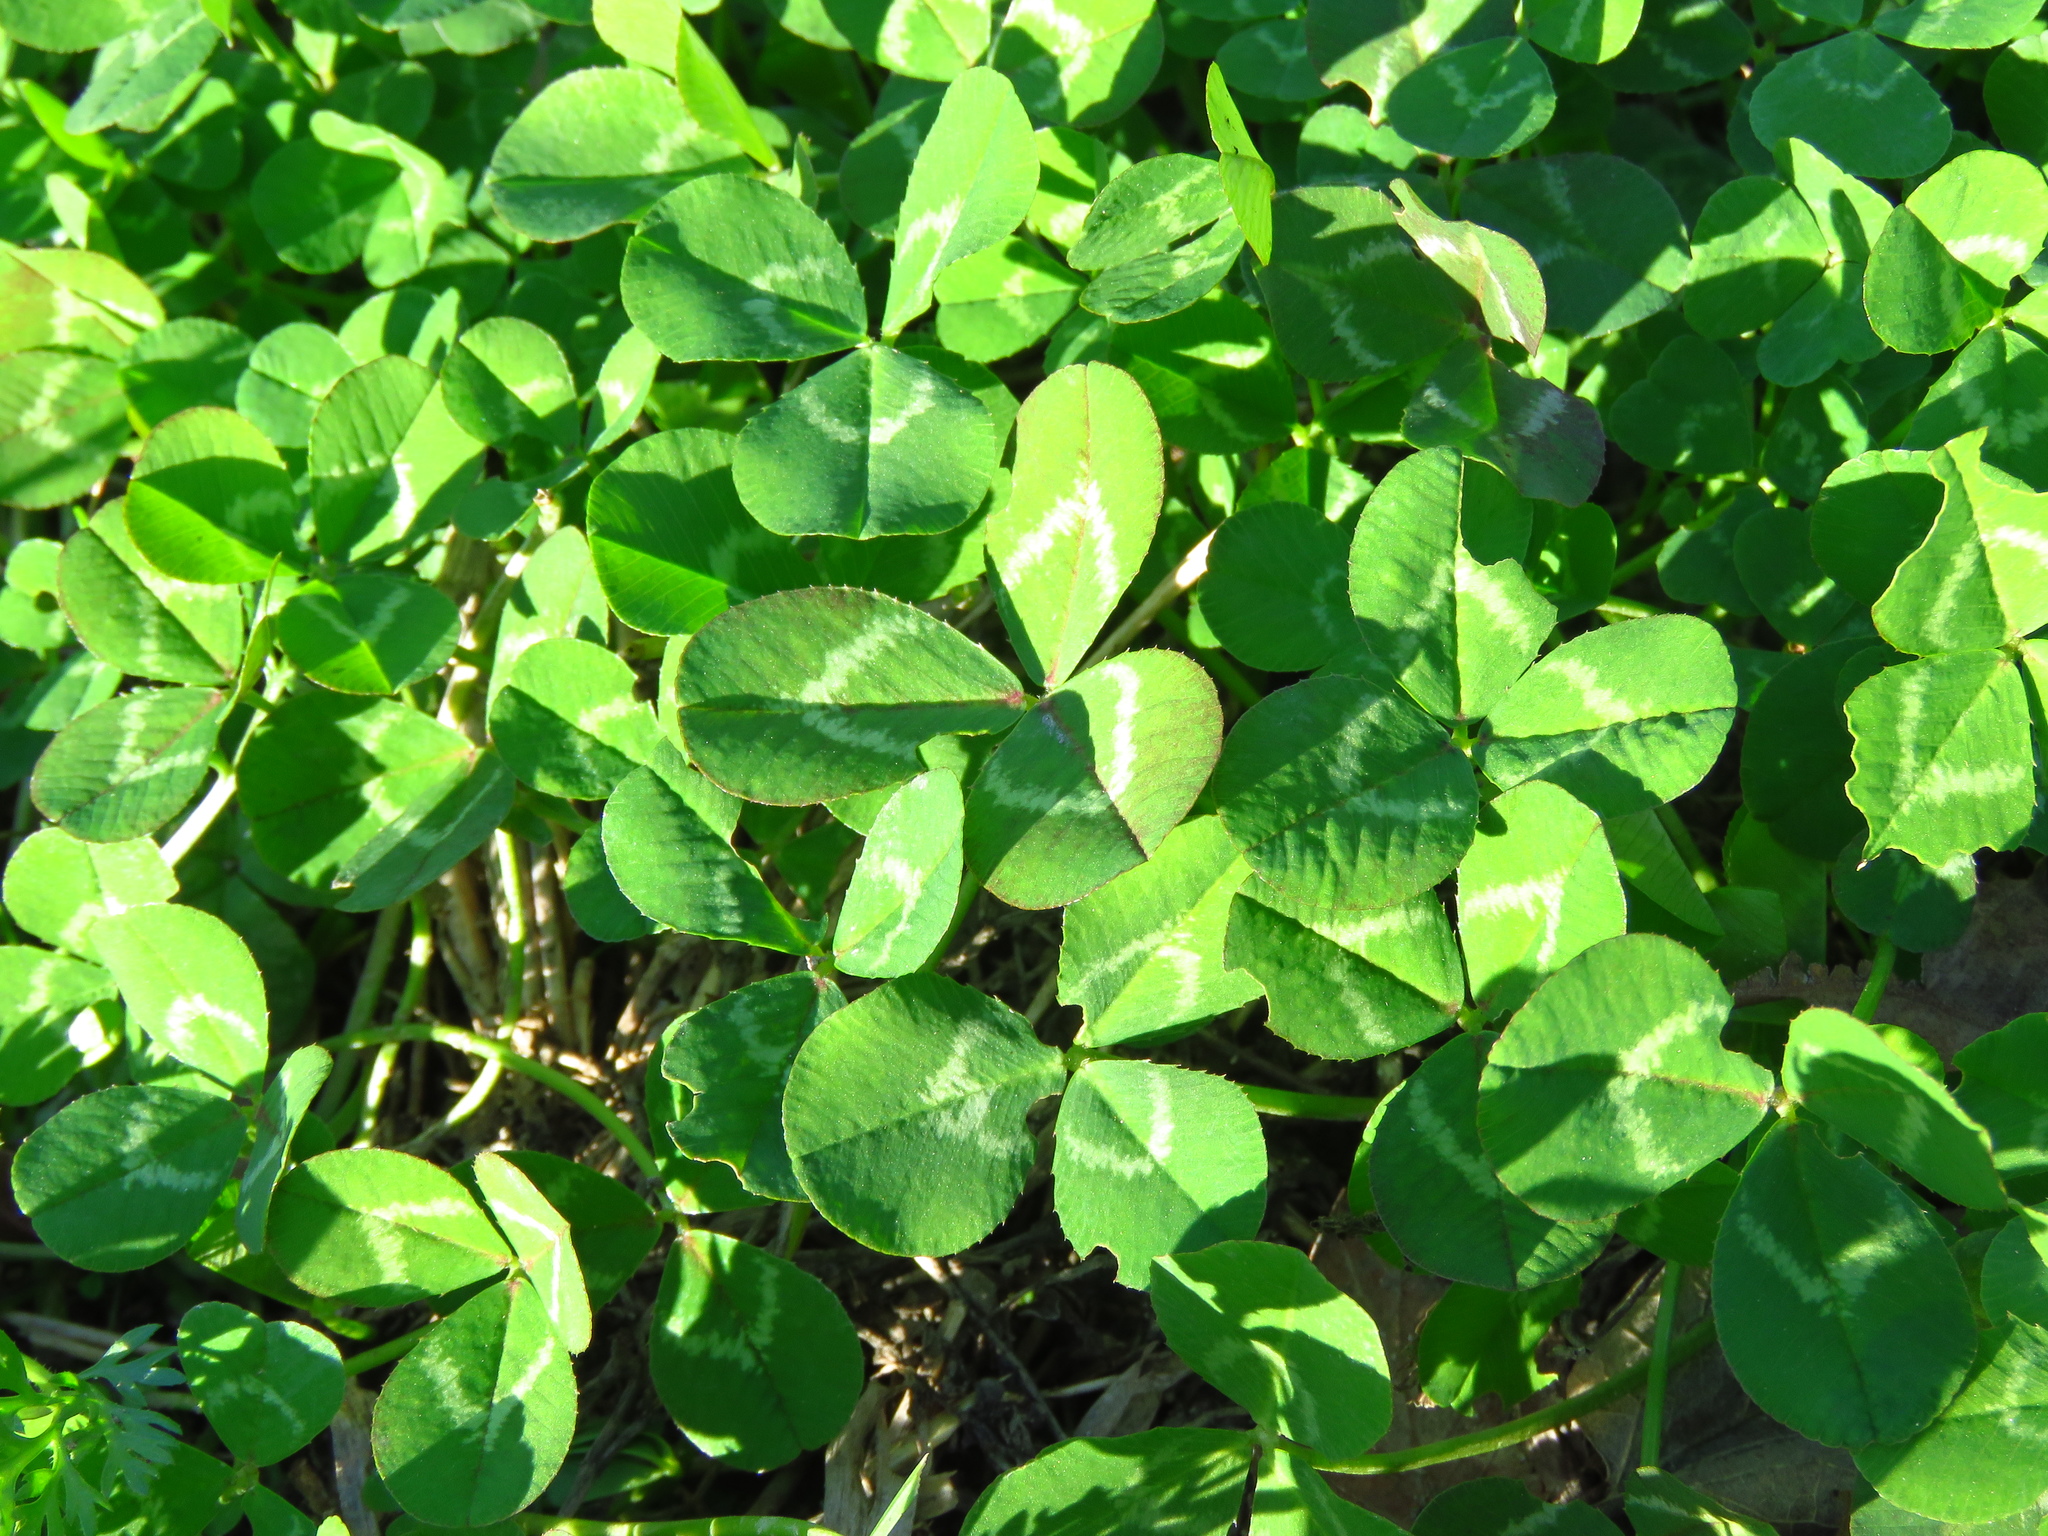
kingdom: Plantae
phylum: Tracheophyta
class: Magnoliopsida
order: Fabales
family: Fabaceae
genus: Trifolium
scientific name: Trifolium repens
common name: White clover
